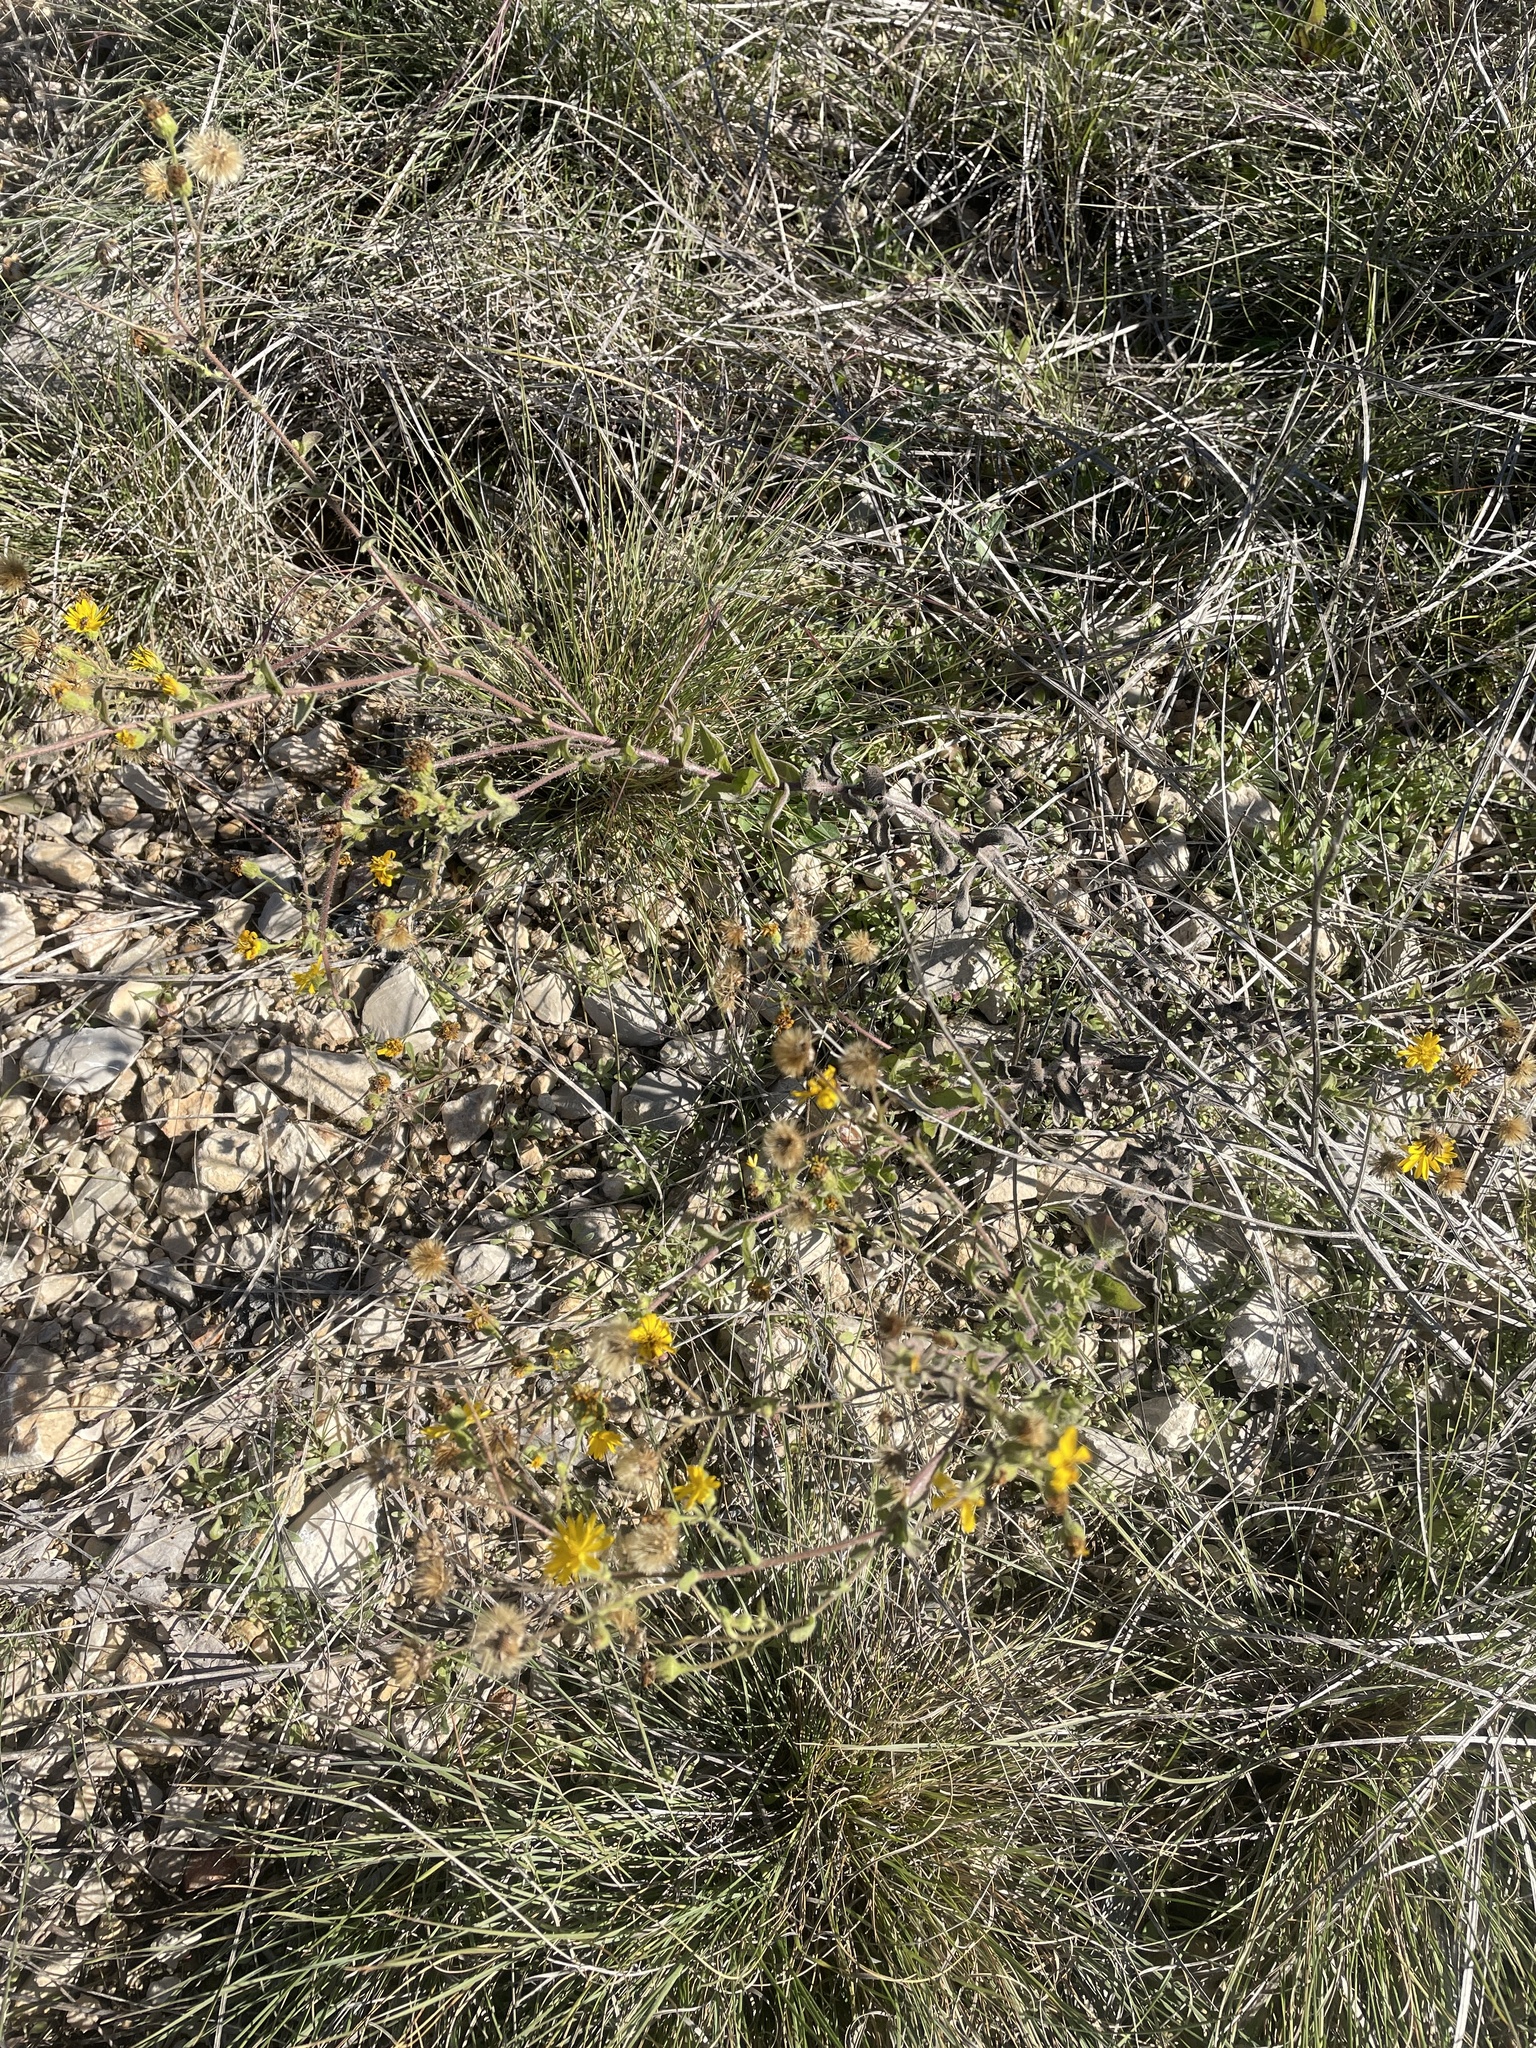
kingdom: Plantae
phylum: Tracheophyta
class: Magnoliopsida
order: Asterales
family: Asteraceae
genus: Heterotheca
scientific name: Heterotheca subaxillaris
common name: Camphorweed
